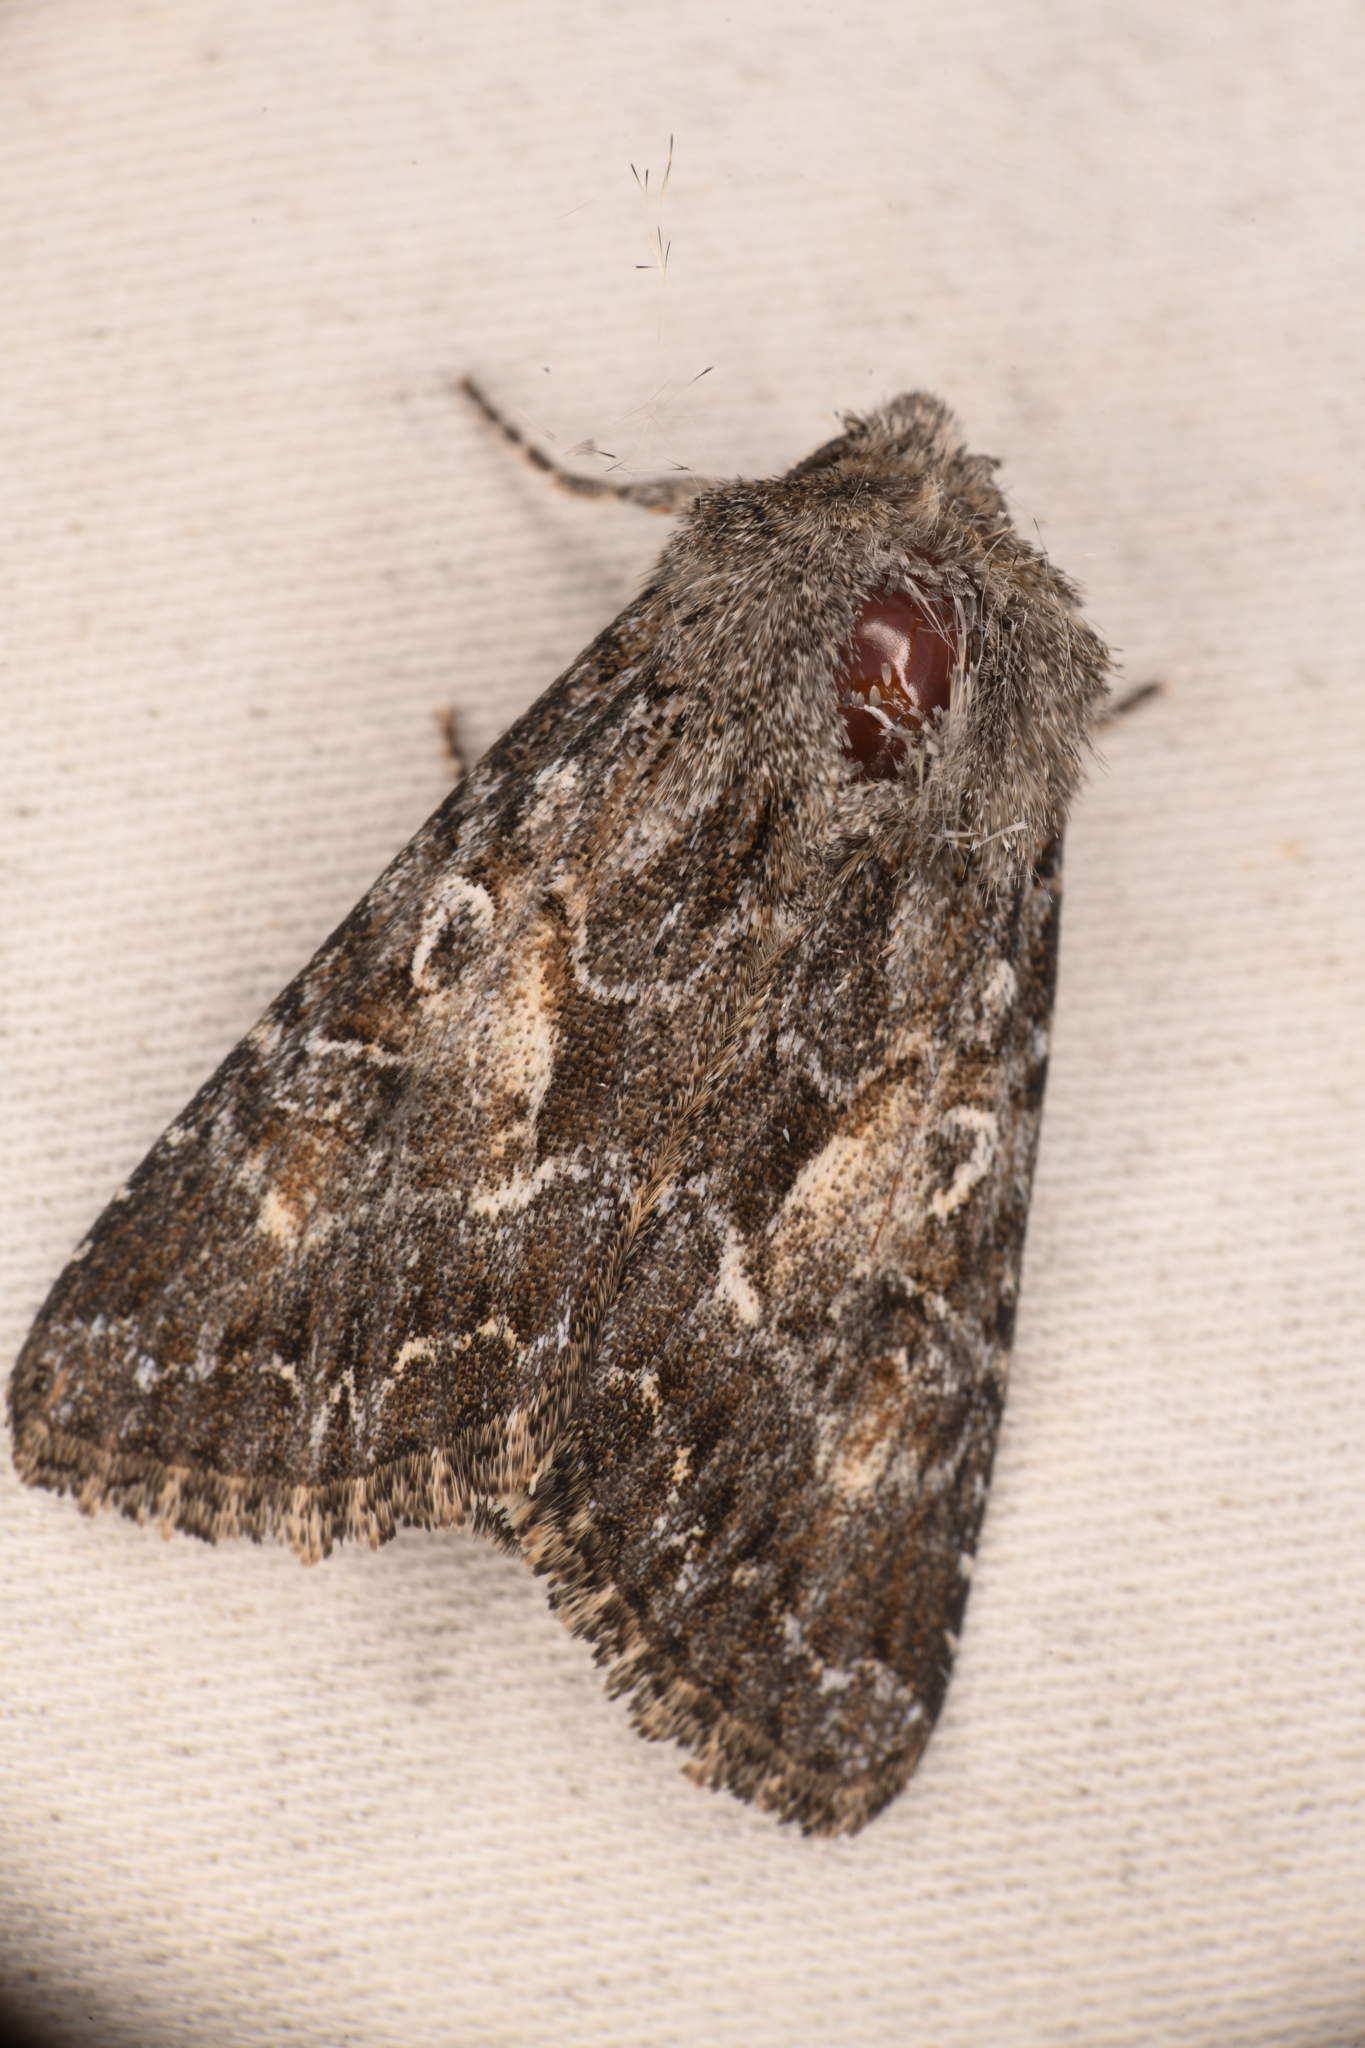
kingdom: Animalia
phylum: Arthropoda
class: Insecta
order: Lepidoptera
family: Noctuidae
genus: Pseudanarta
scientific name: Pseudanarta crocea
